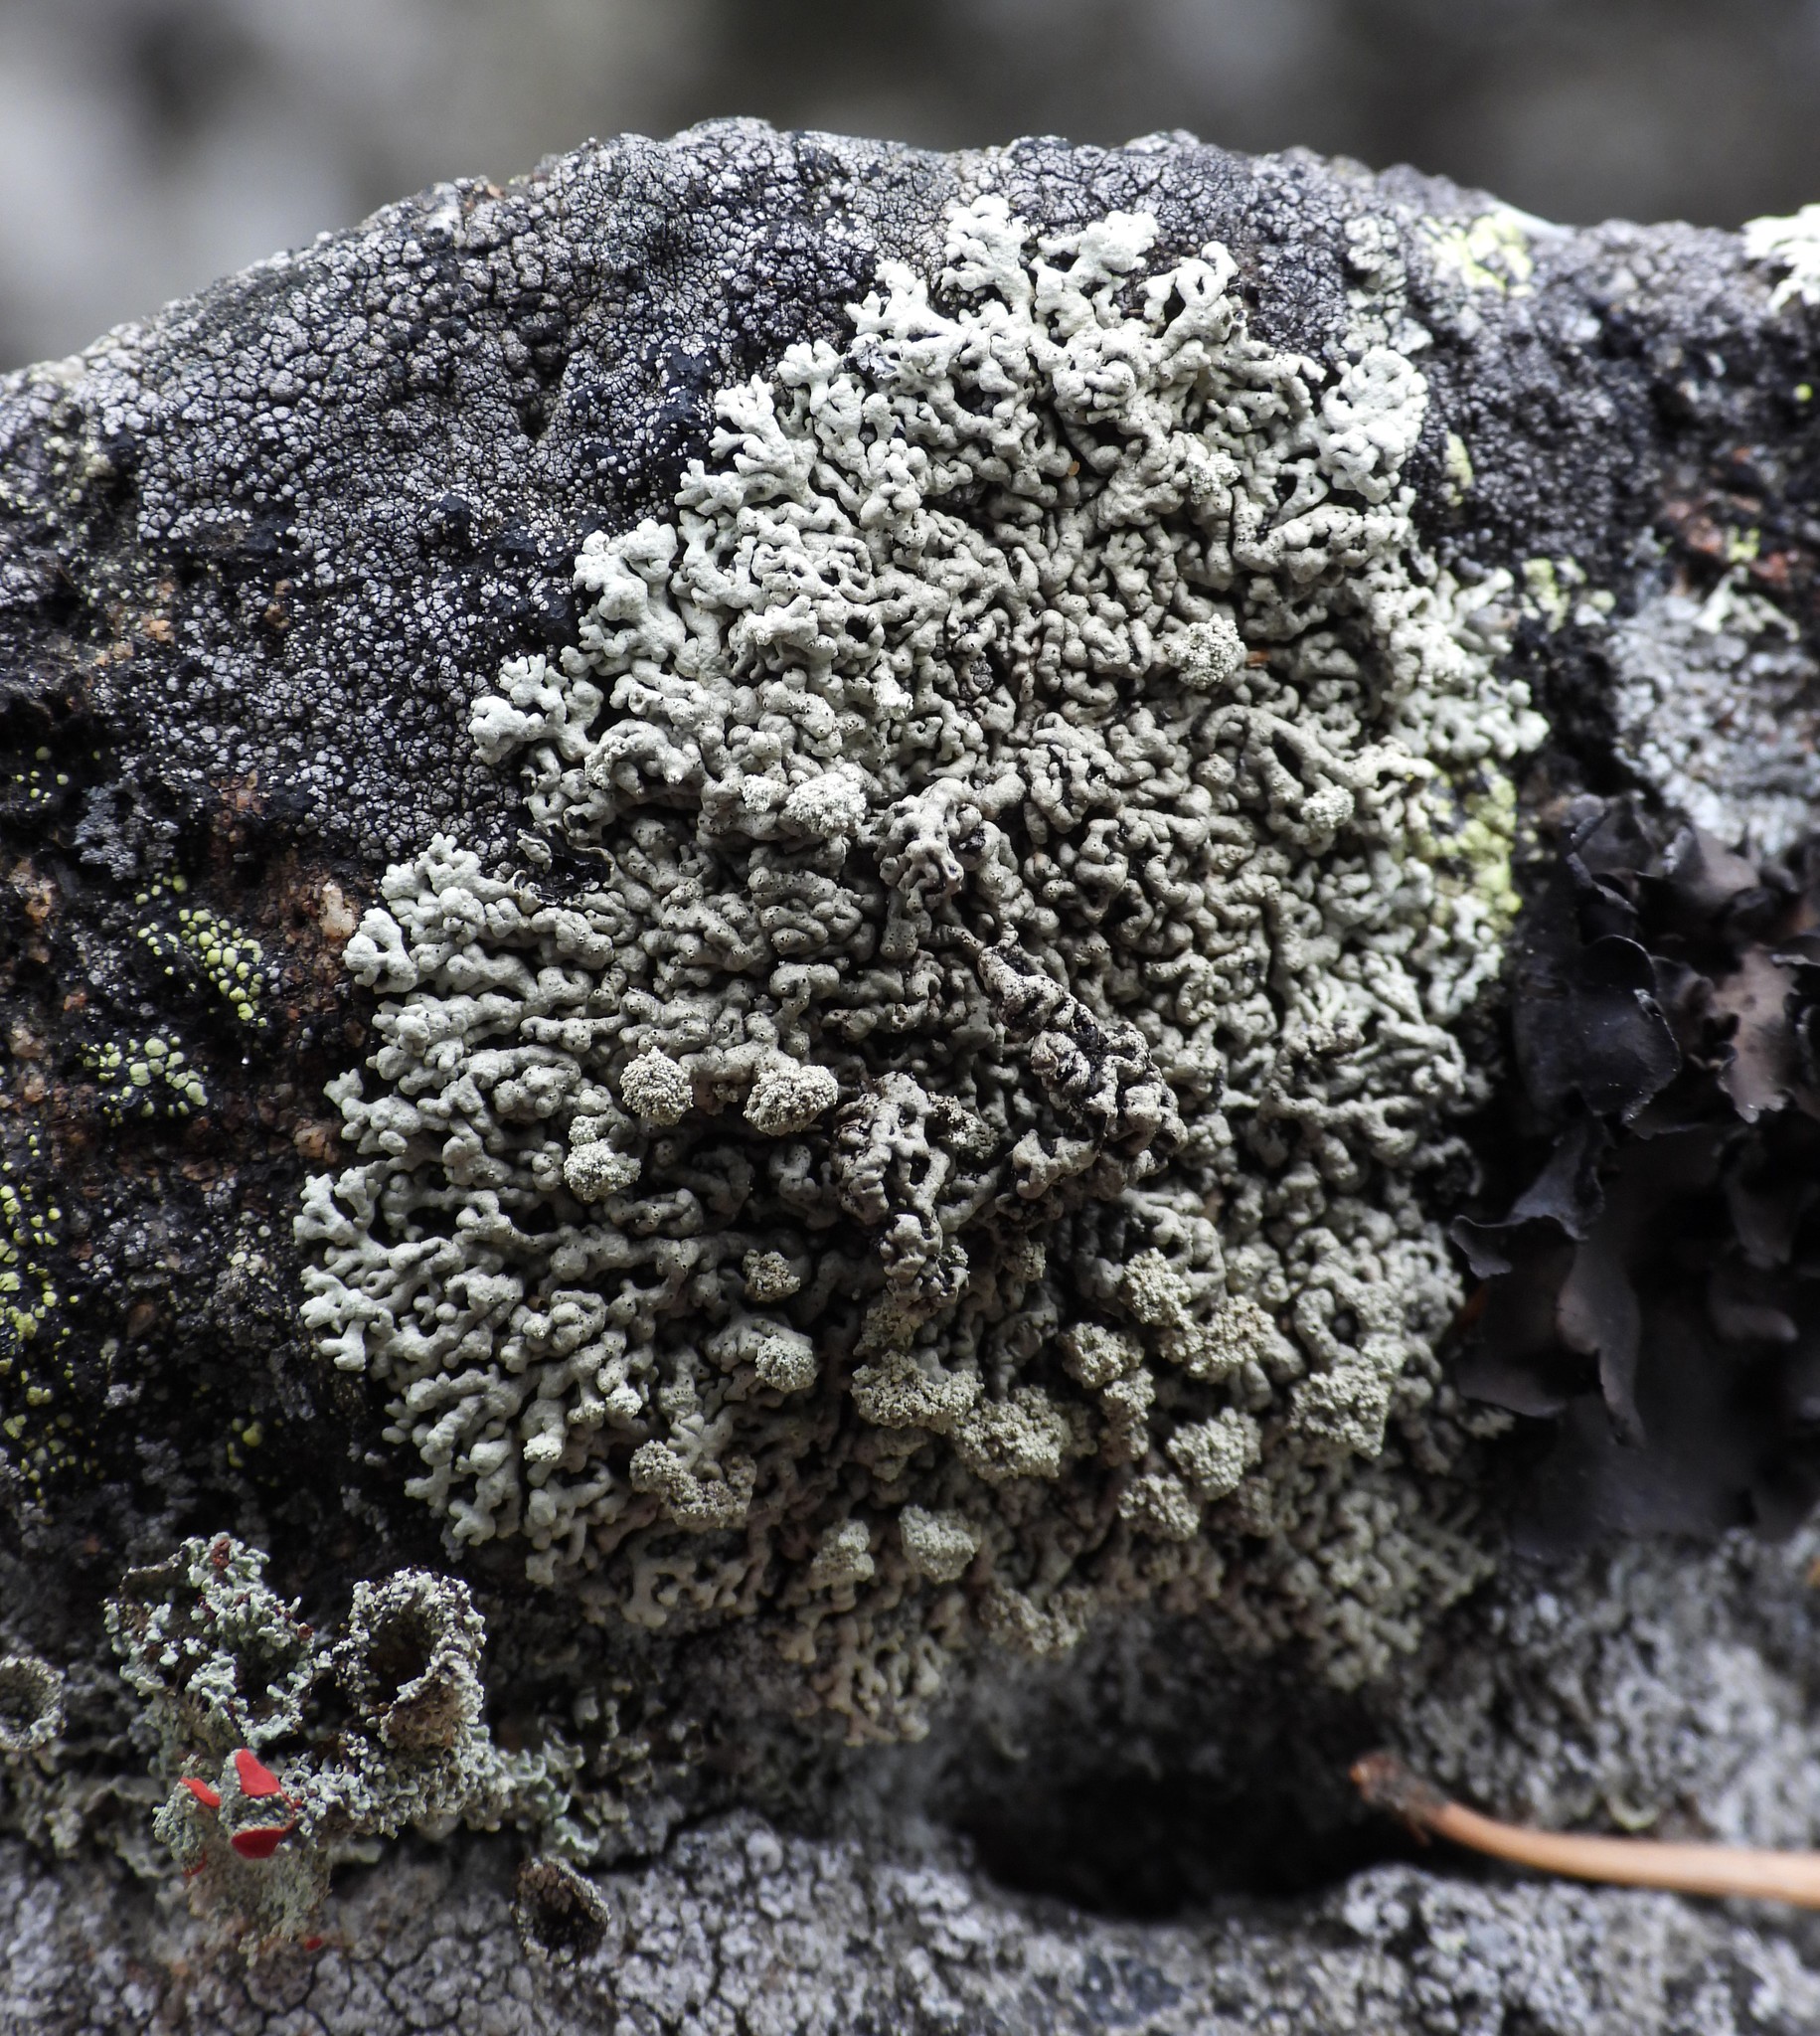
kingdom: Fungi
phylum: Ascomycota
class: Lecanoromycetes
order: Lecanorales
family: Parmeliaceae
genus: Arctoparmelia
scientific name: Arctoparmelia incurva
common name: Bent ring lichen
